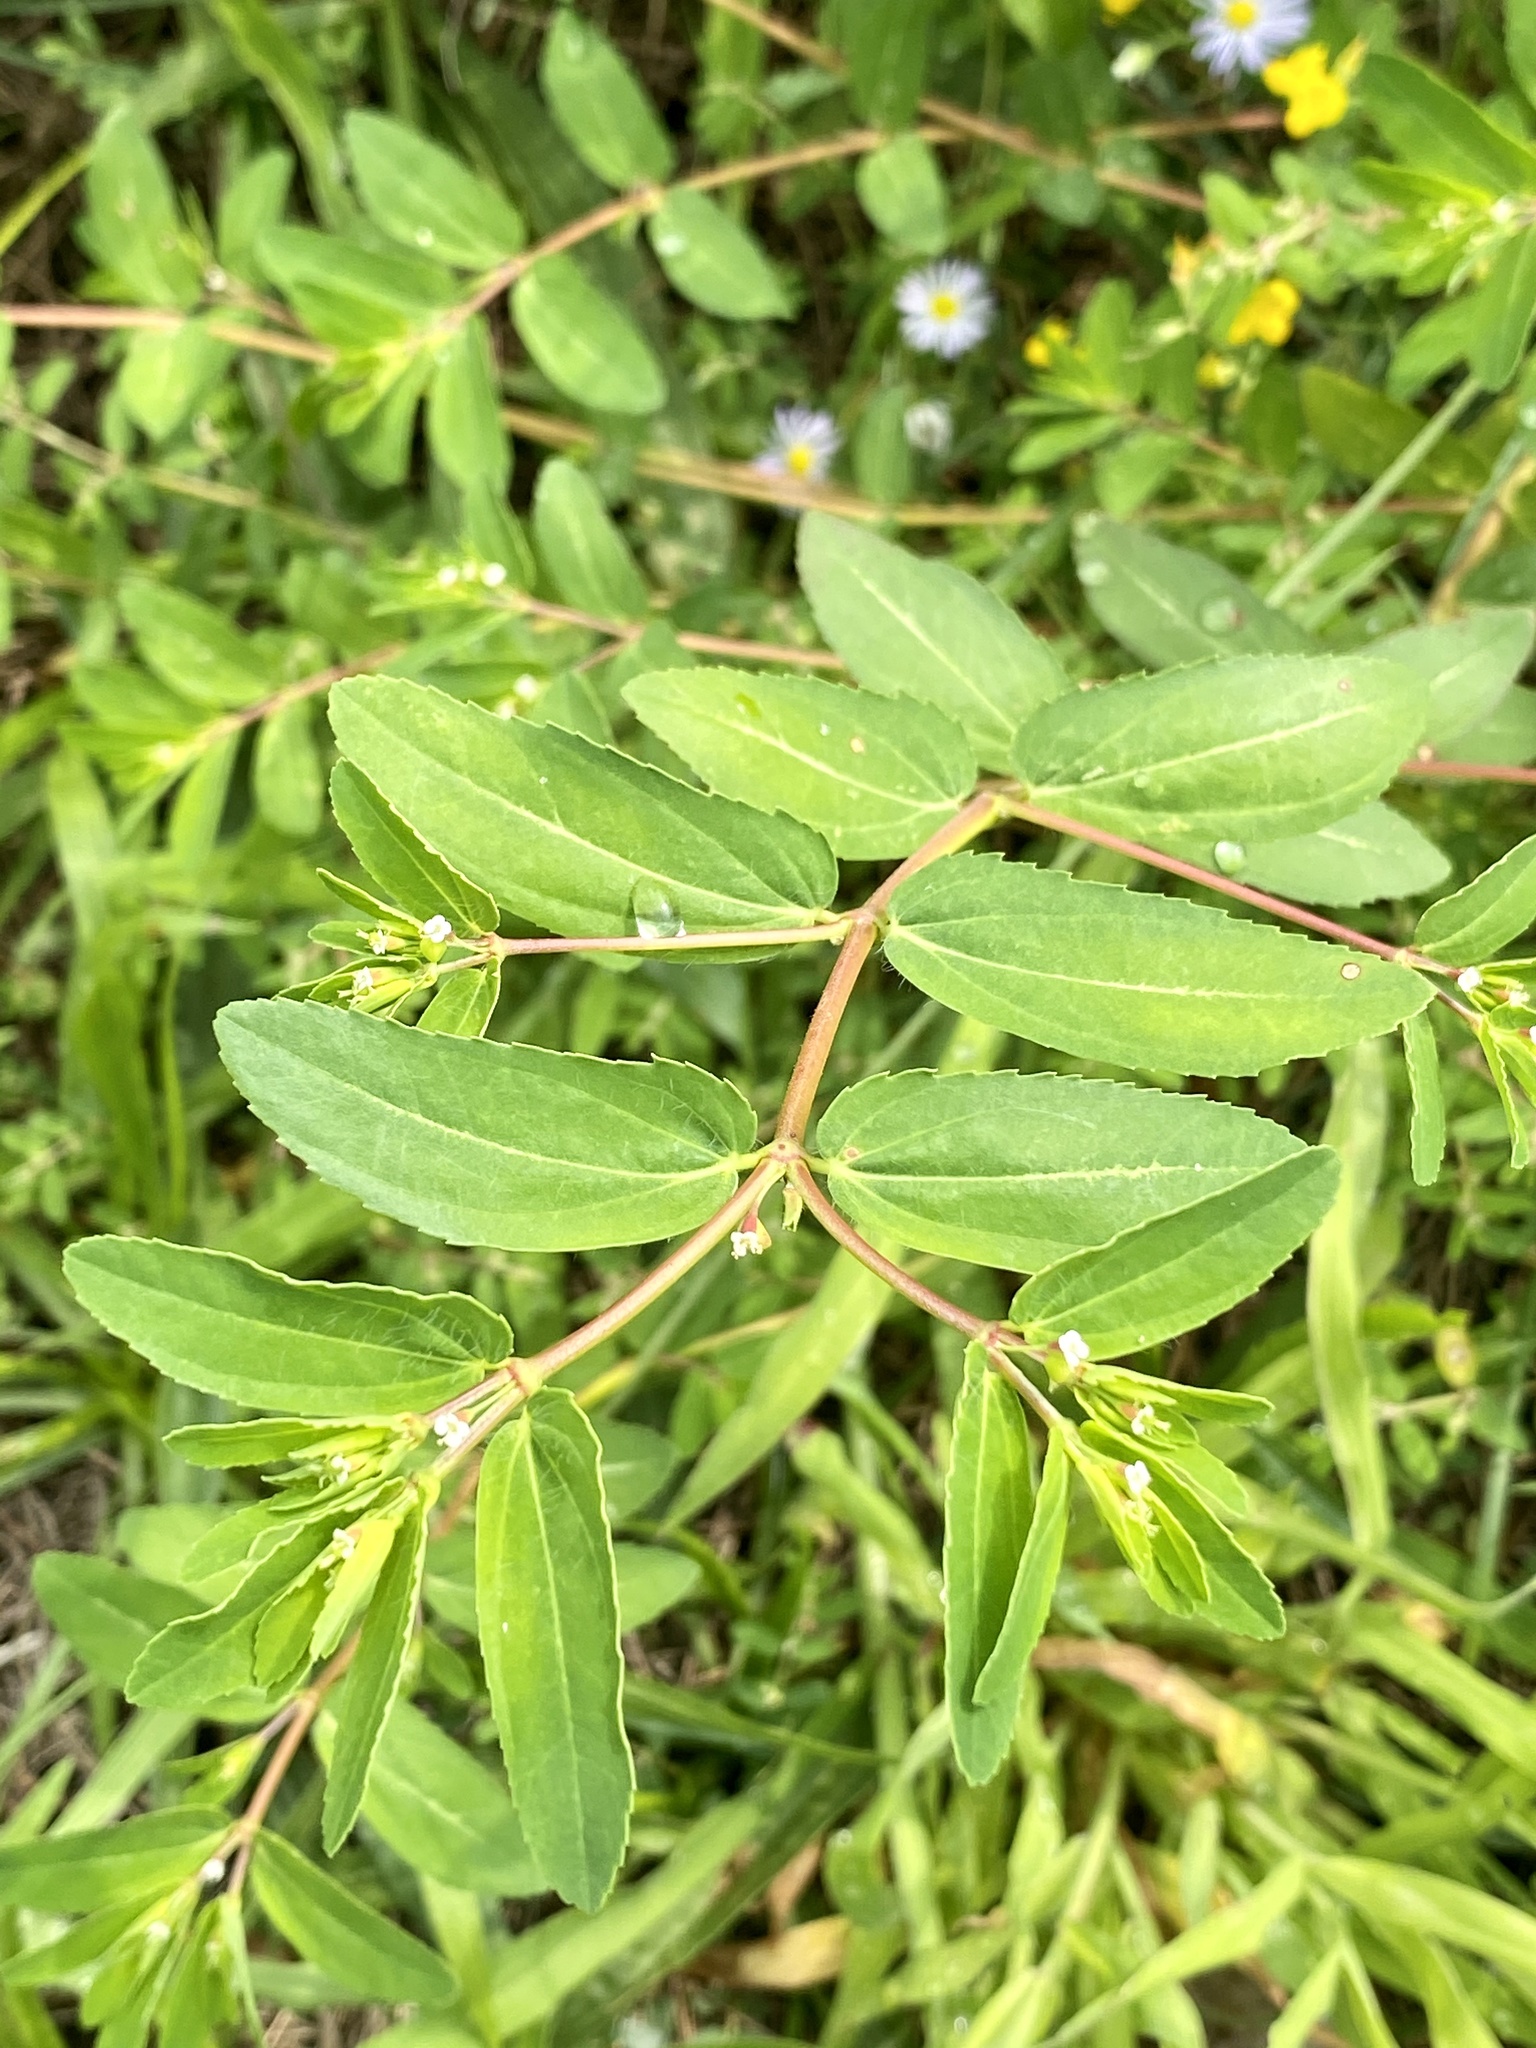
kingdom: Plantae
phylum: Tracheophyta
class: Magnoliopsida
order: Malpighiales
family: Euphorbiaceae
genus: Euphorbia
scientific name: Euphorbia nutans
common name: Eyebane
